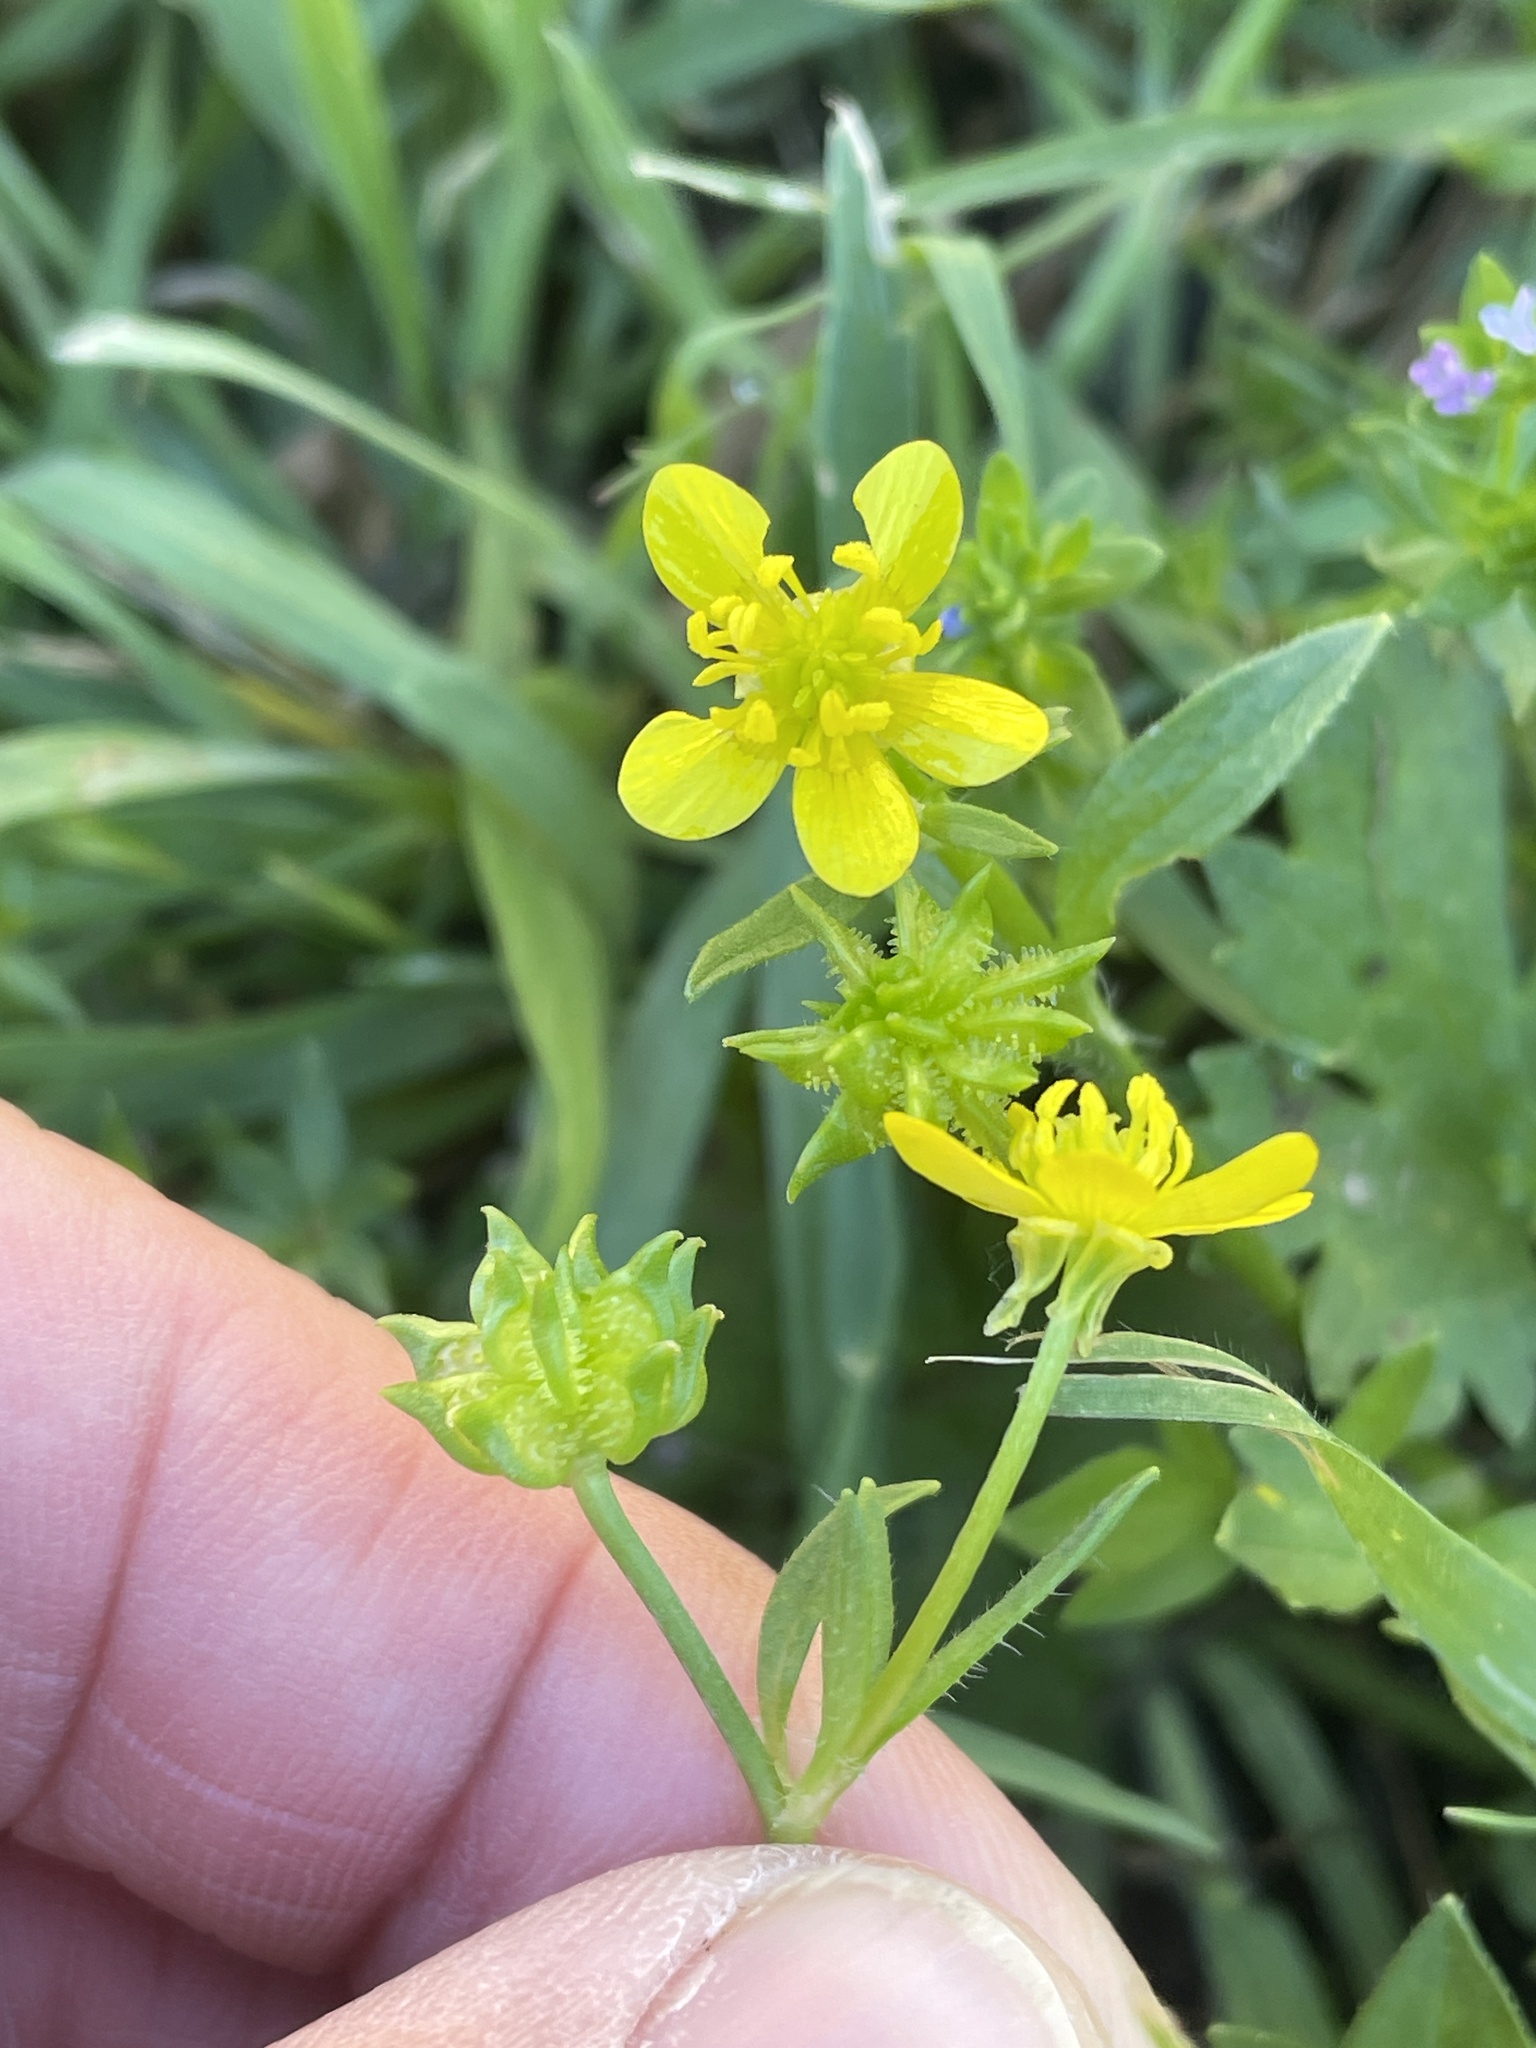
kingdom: Plantae
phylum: Tracheophyta
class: Magnoliopsida
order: Ranunculales
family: Ranunculaceae
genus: Ranunculus
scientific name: Ranunculus muricatus
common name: Rough-fruited buttercup
